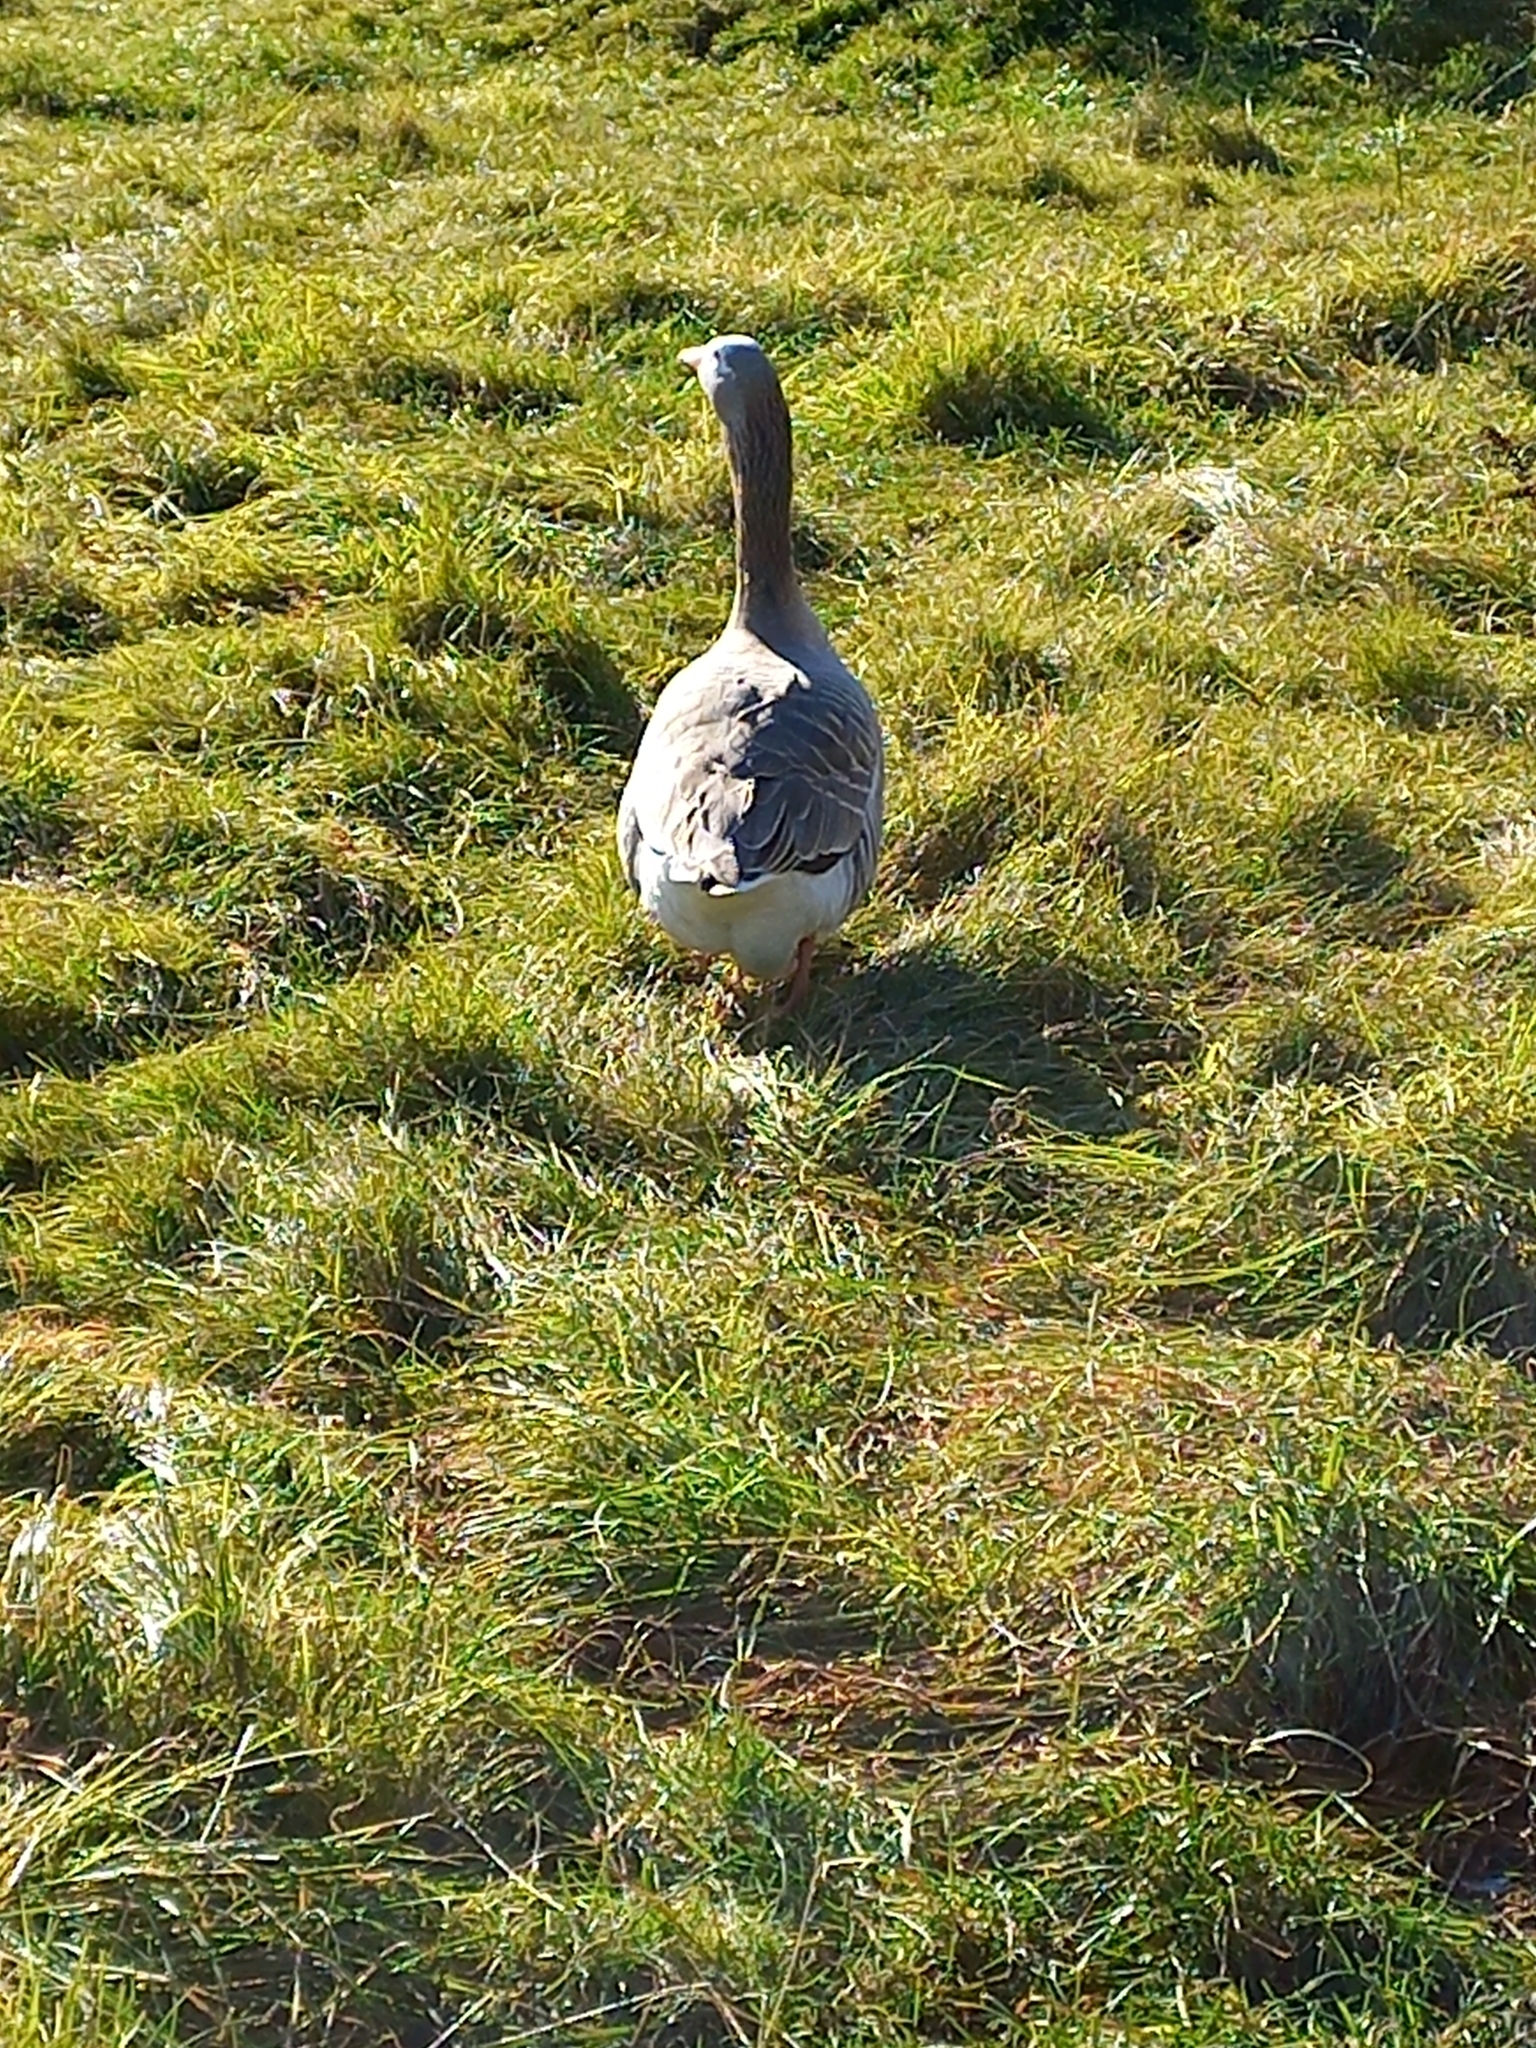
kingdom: Animalia
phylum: Chordata
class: Aves
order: Anseriformes
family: Anatidae
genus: Anser
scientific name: Anser anser
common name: Greylag goose
